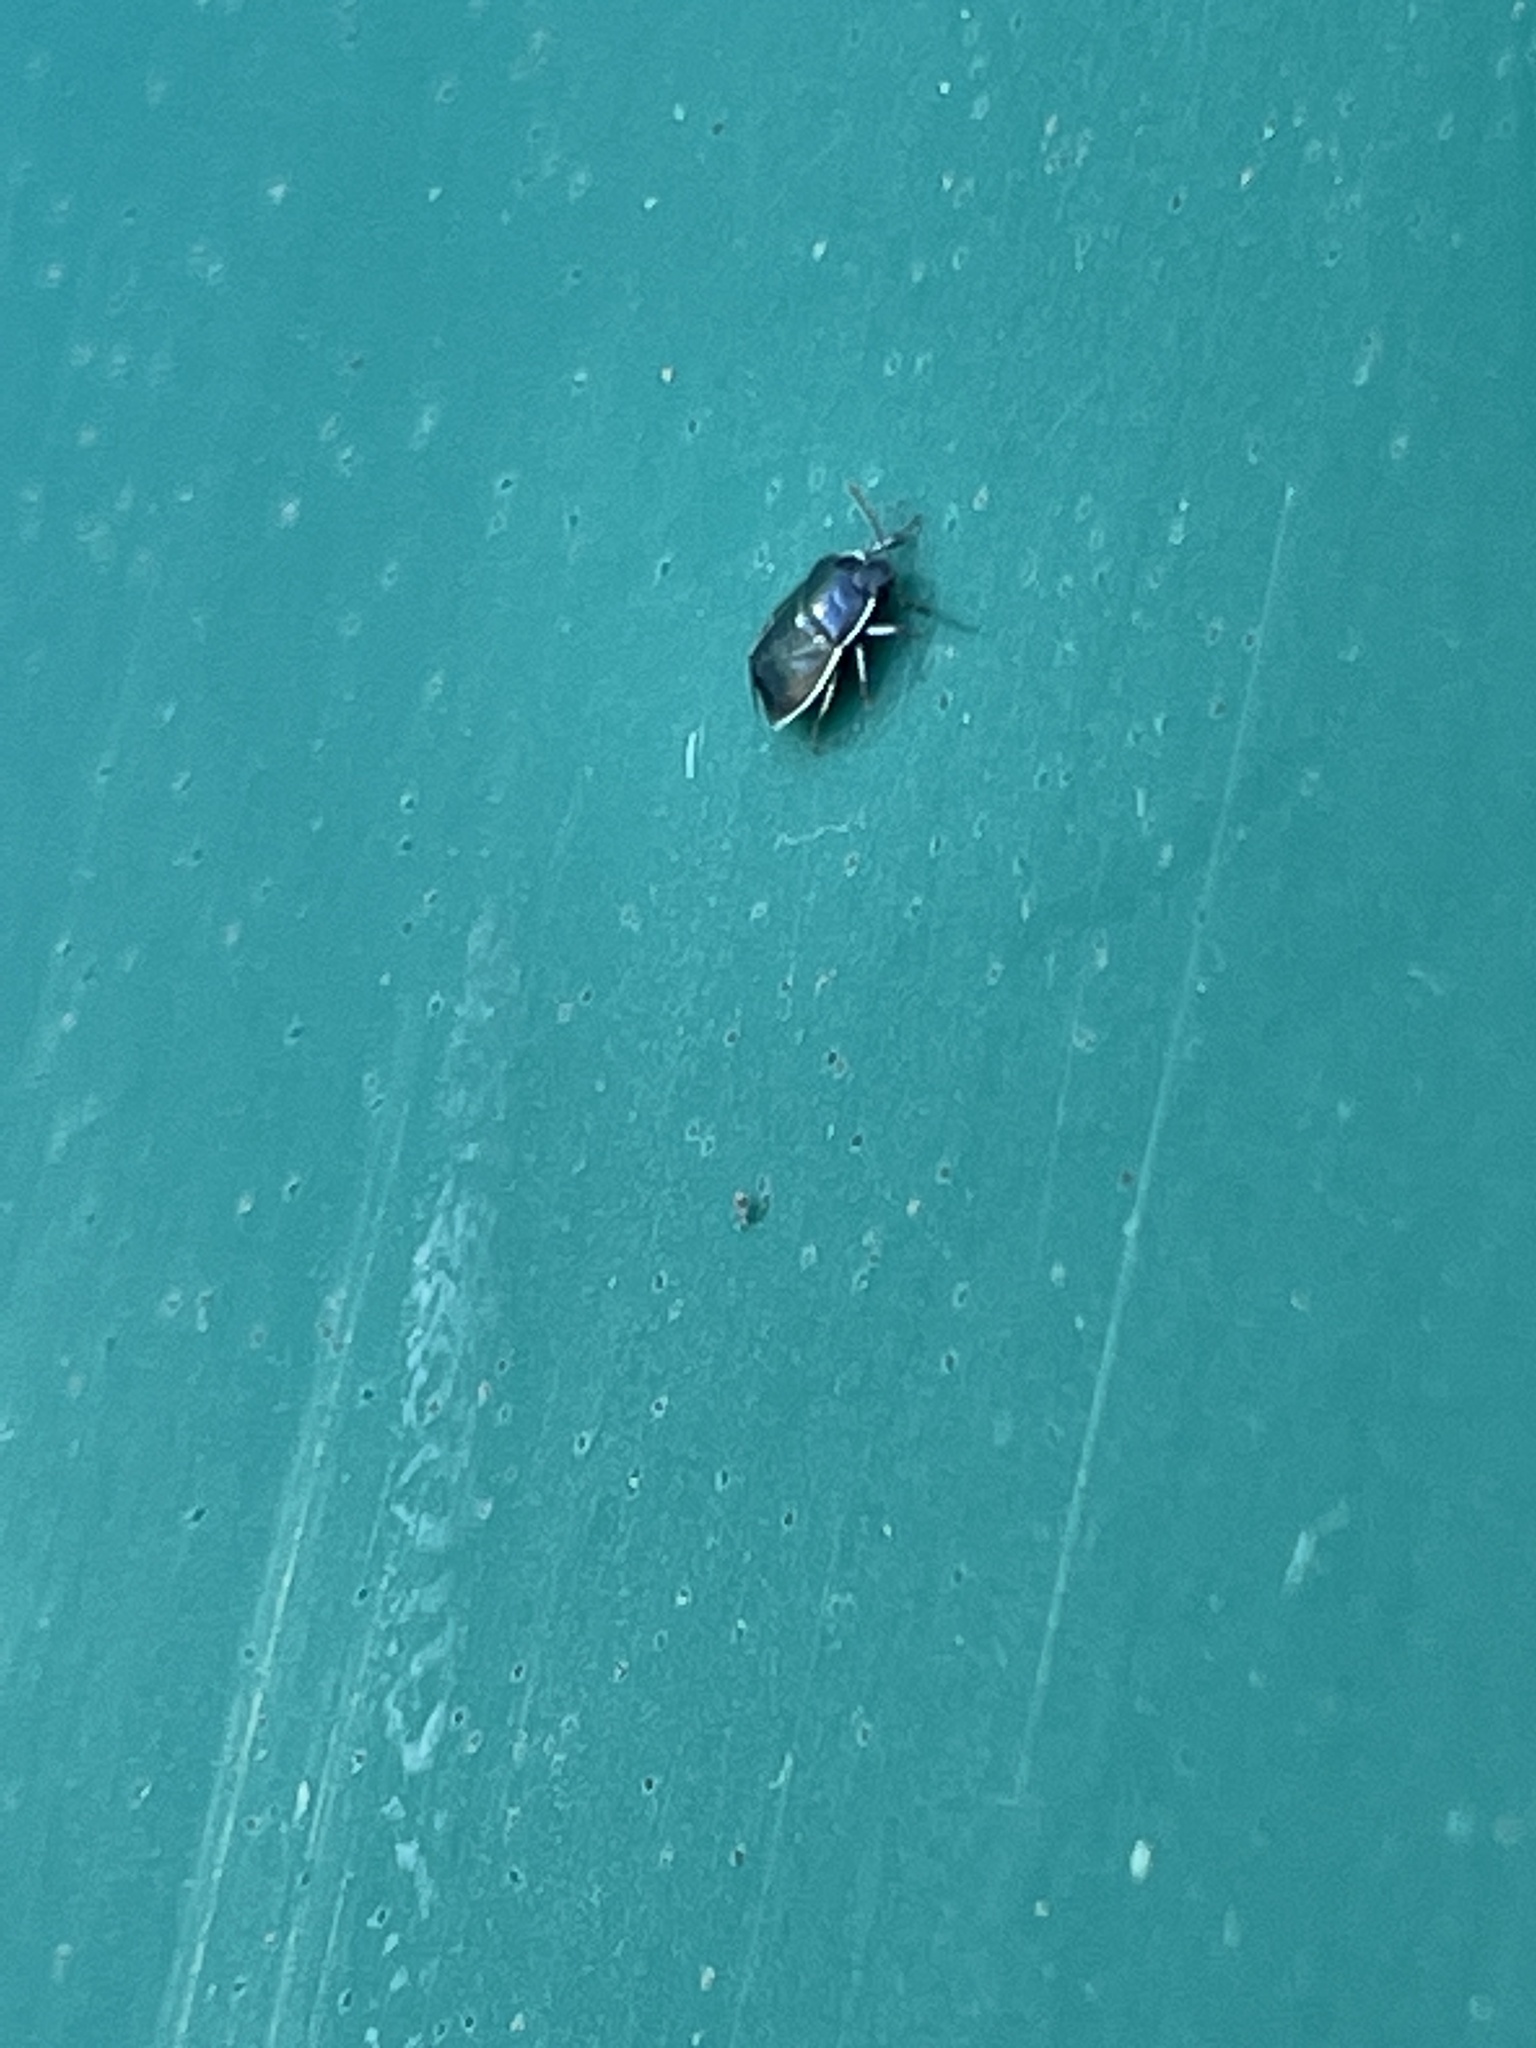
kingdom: Animalia
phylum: Arthropoda
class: Insecta
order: Hemiptera
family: Cydnidae
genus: Sehirus
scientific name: Sehirus cinctus
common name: White-margined burrower bug
